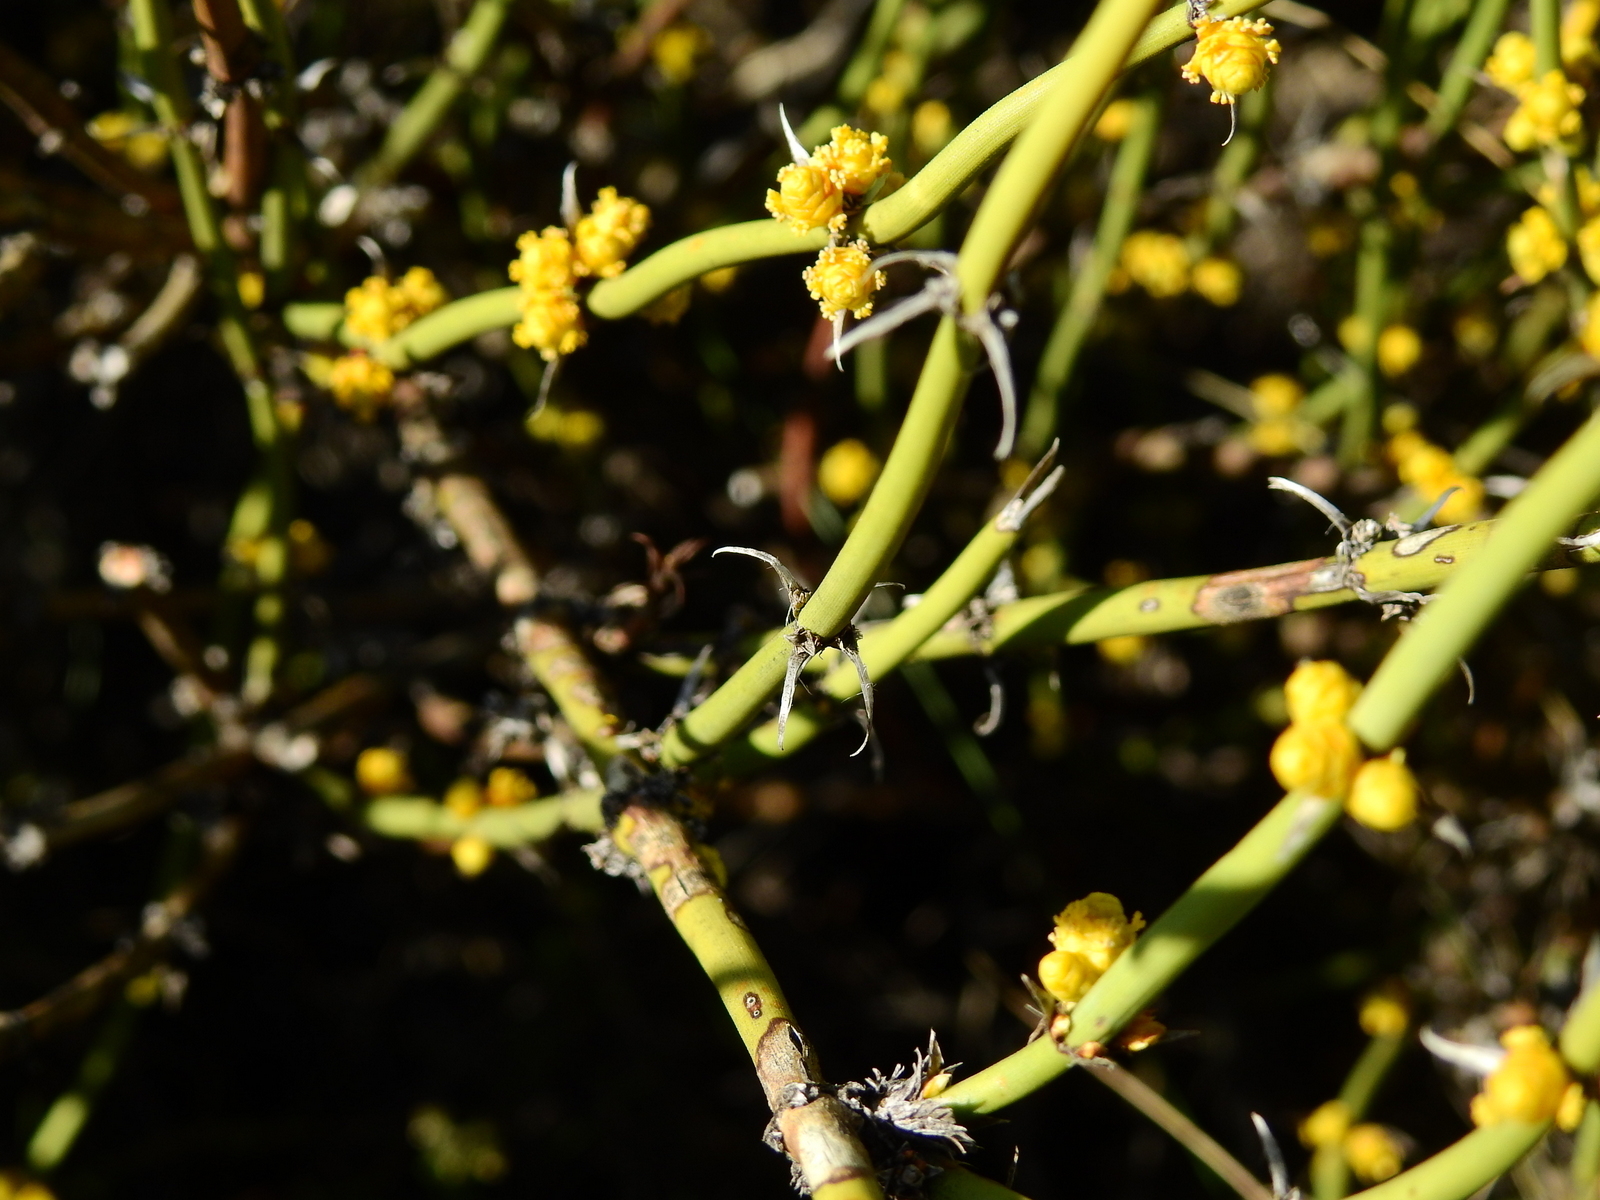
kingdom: Plantae
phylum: Tracheophyta
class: Gnetopsida
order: Ephedrales
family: Ephedraceae
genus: Ephedra
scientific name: Ephedra ochreata
